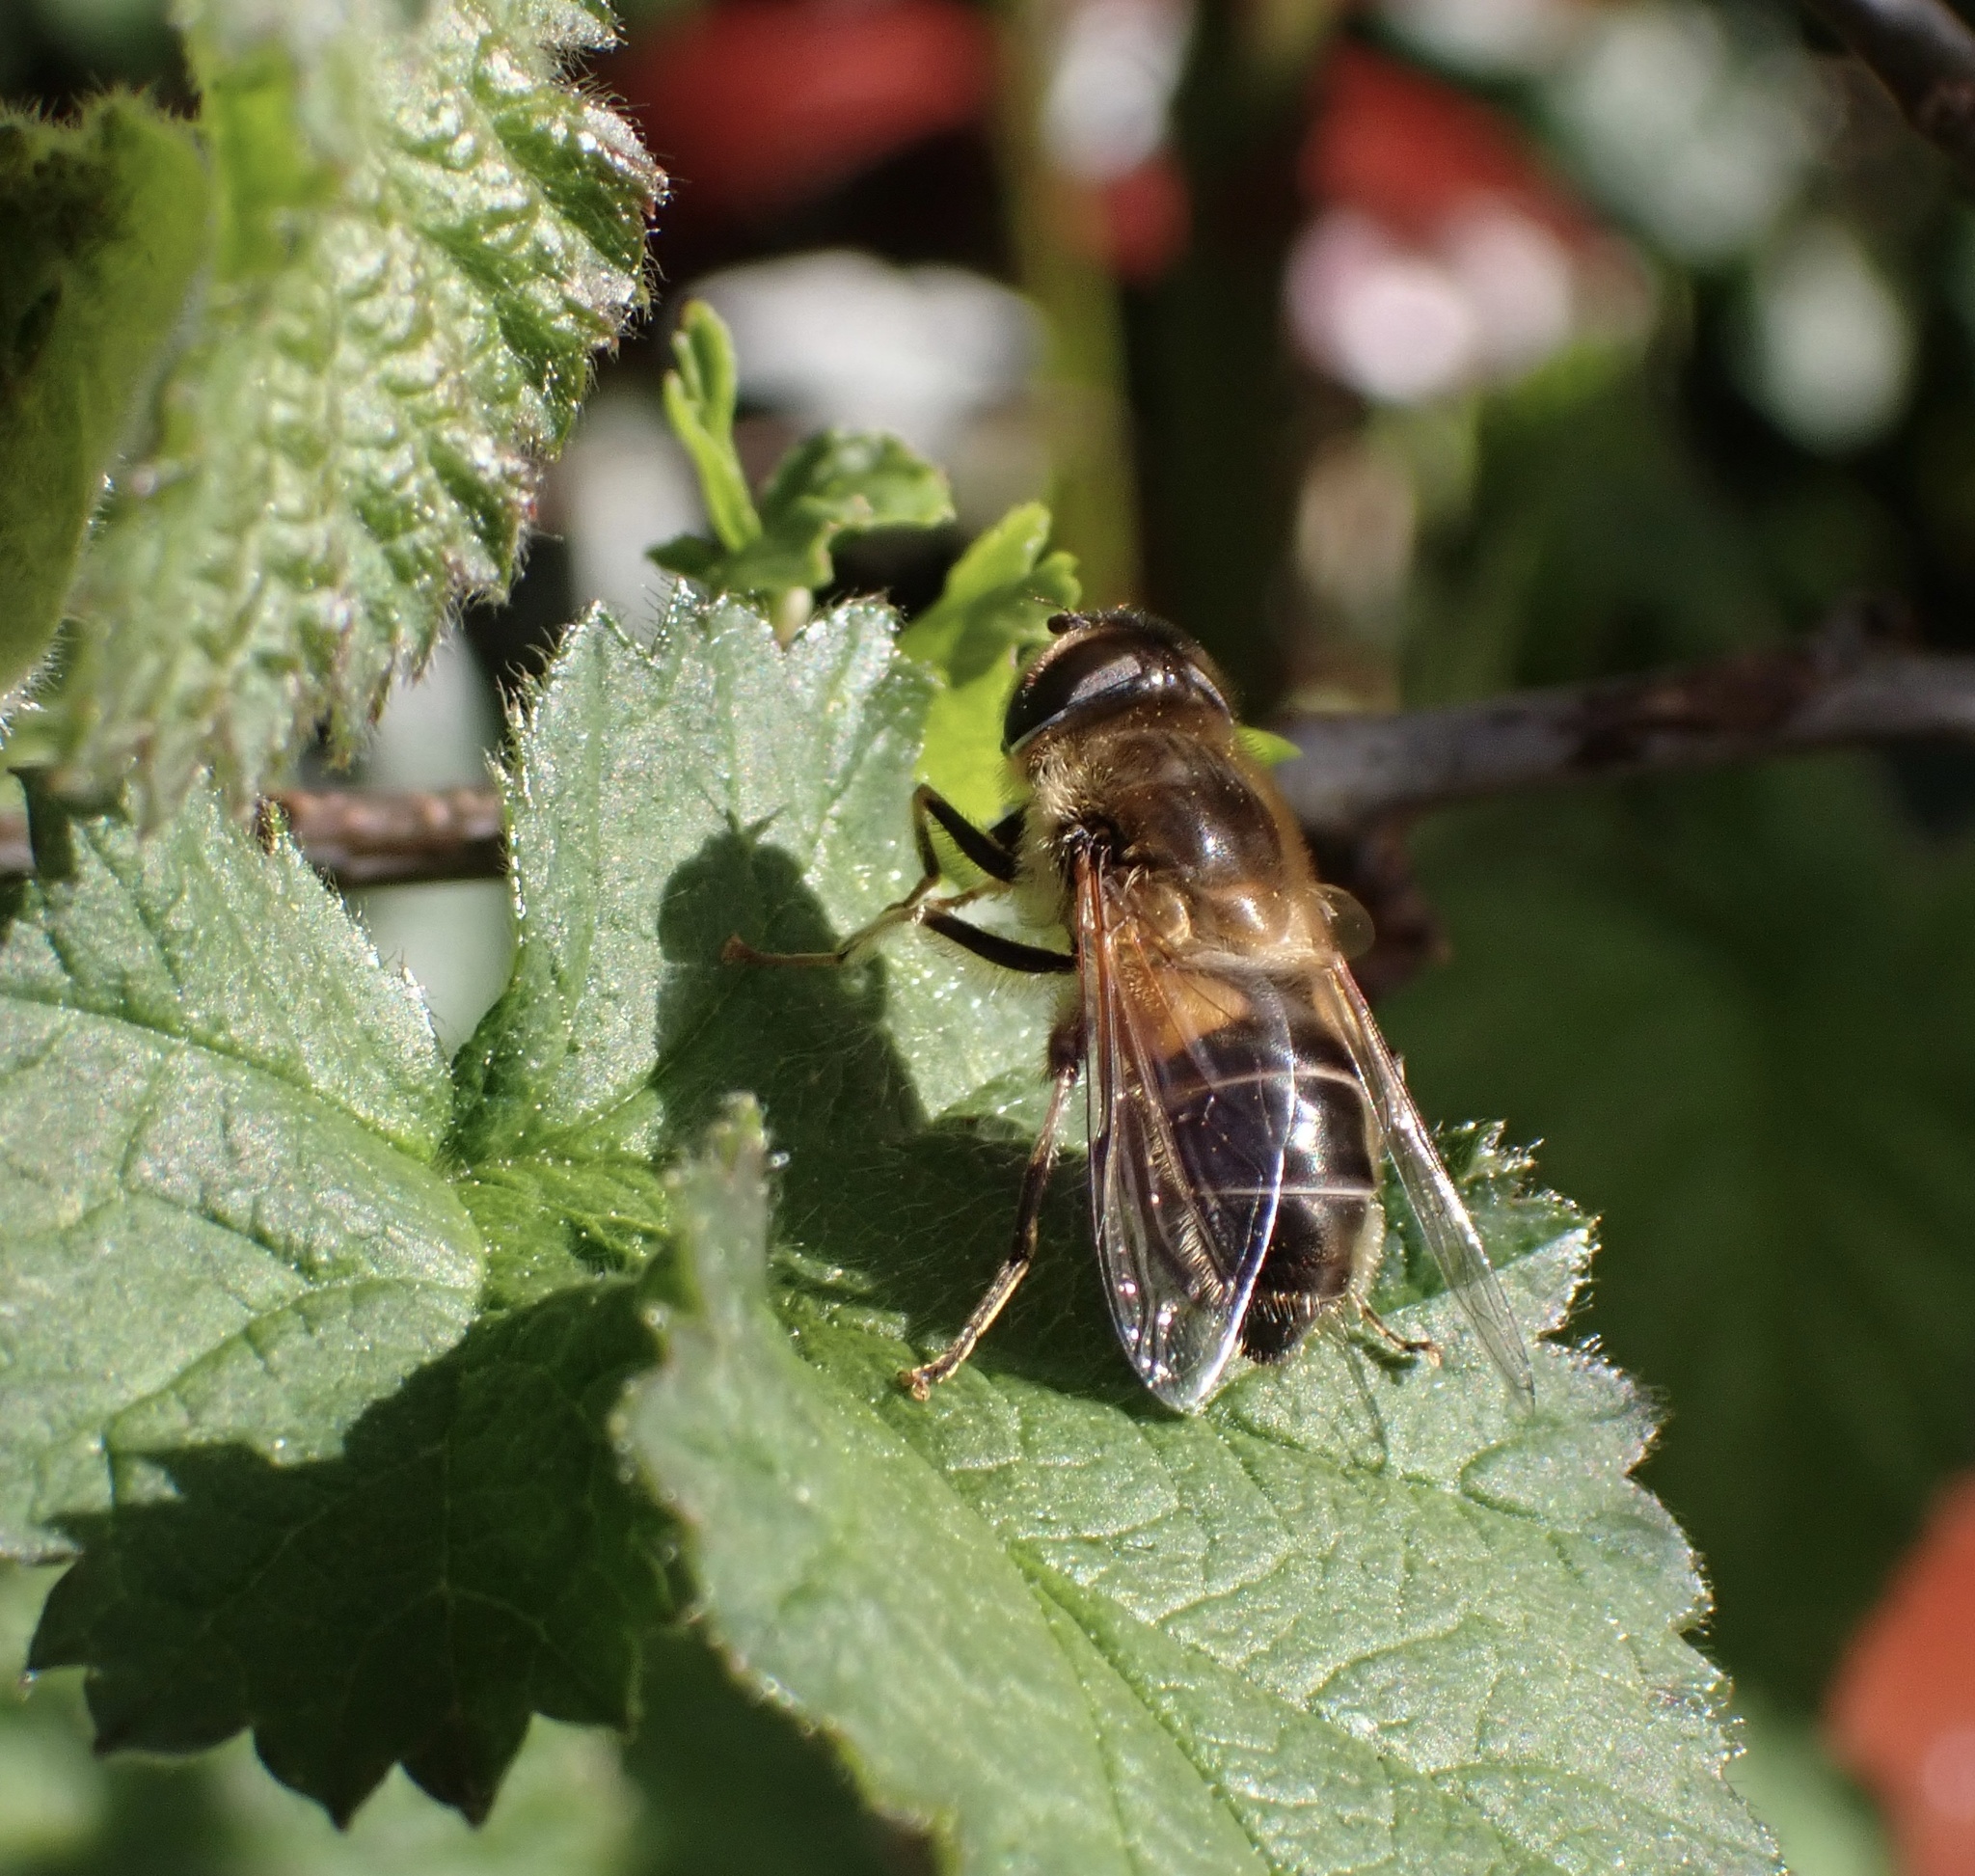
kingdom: Animalia
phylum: Arthropoda
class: Insecta
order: Diptera
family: Syrphidae
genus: Eristalis
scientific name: Eristalis pertinax
